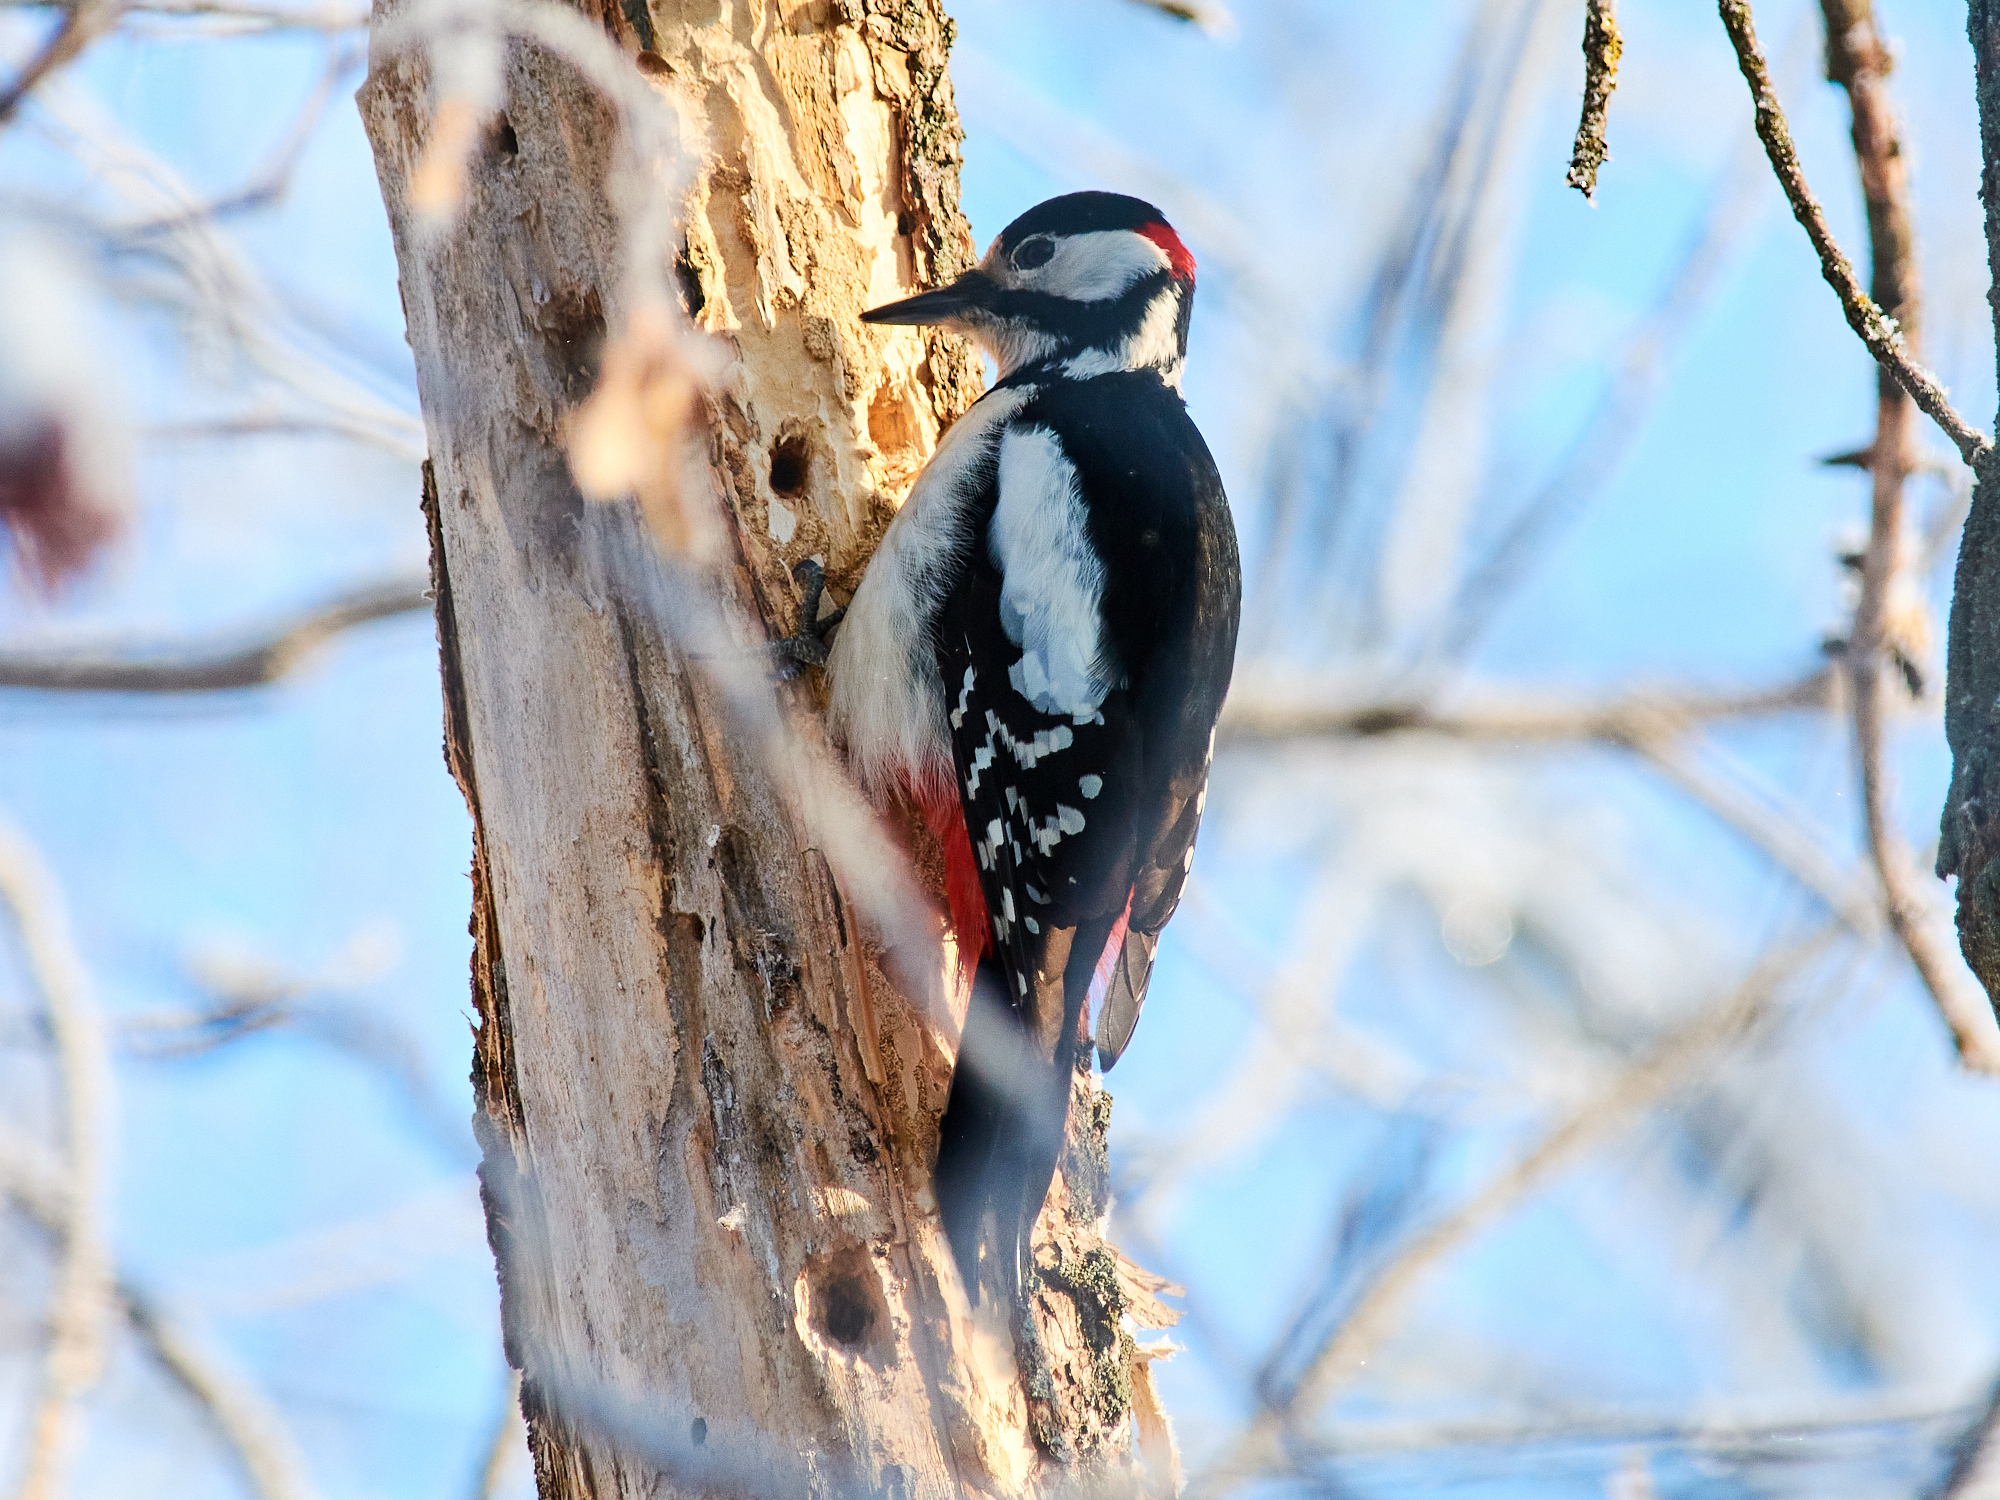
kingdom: Animalia
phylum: Chordata
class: Aves
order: Piciformes
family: Picidae
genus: Dendrocopos
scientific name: Dendrocopos major
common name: Great spotted woodpecker
